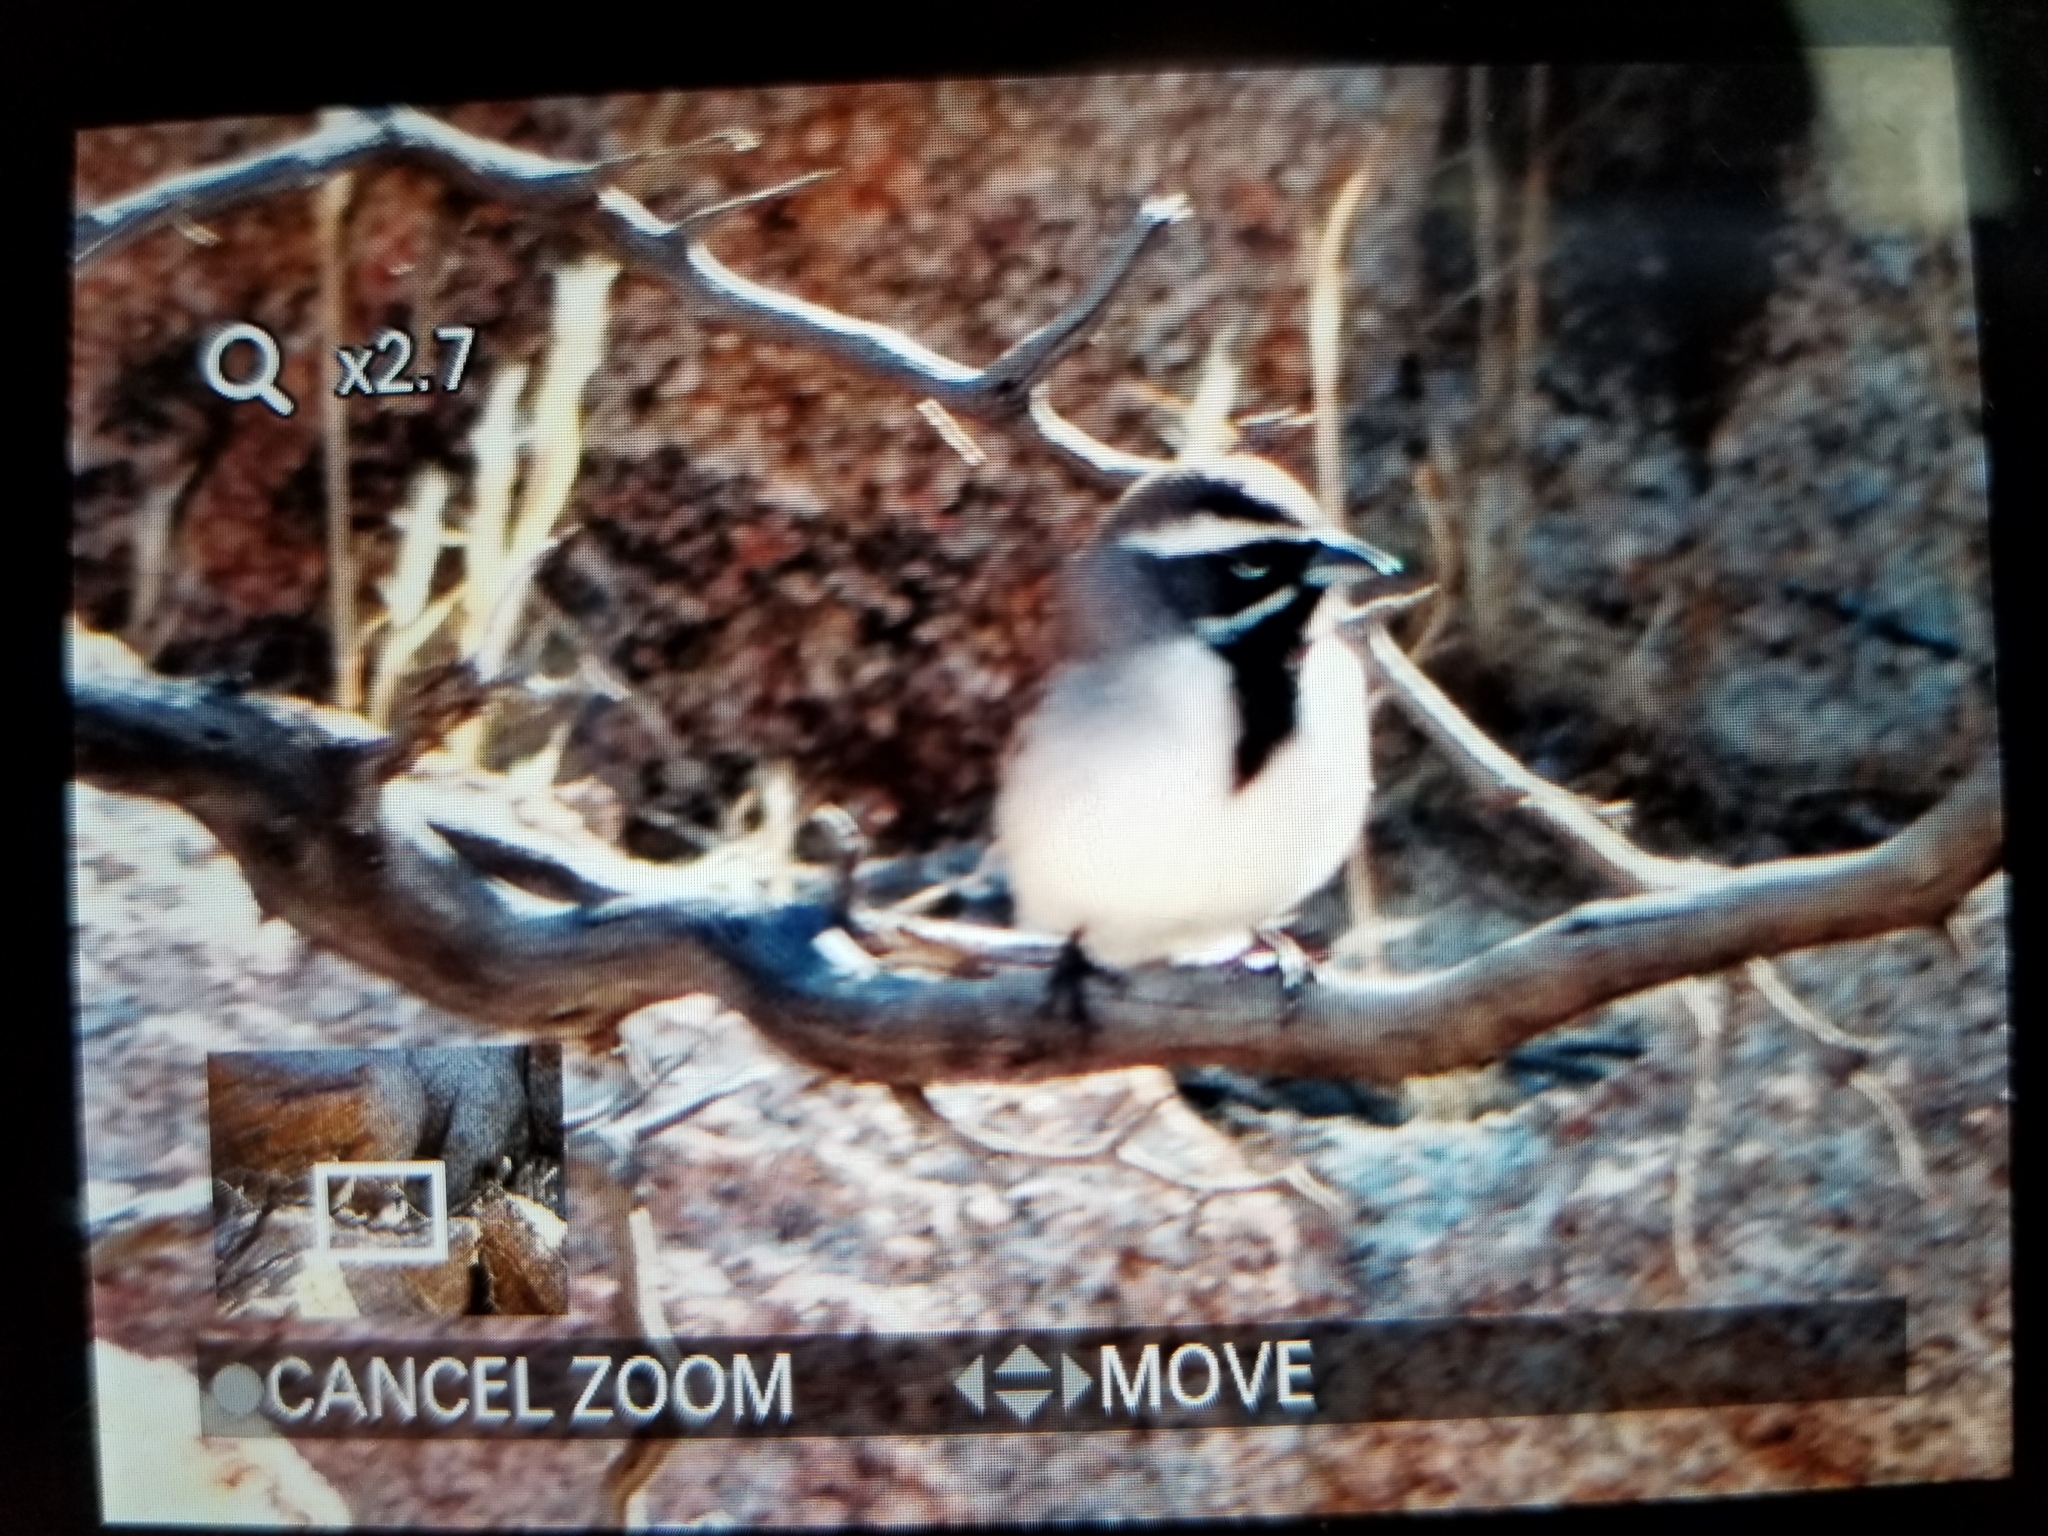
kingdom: Animalia
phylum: Chordata
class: Aves
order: Passeriformes
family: Passerellidae
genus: Amphispiza
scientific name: Amphispiza bilineata
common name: Black-throated sparrow
